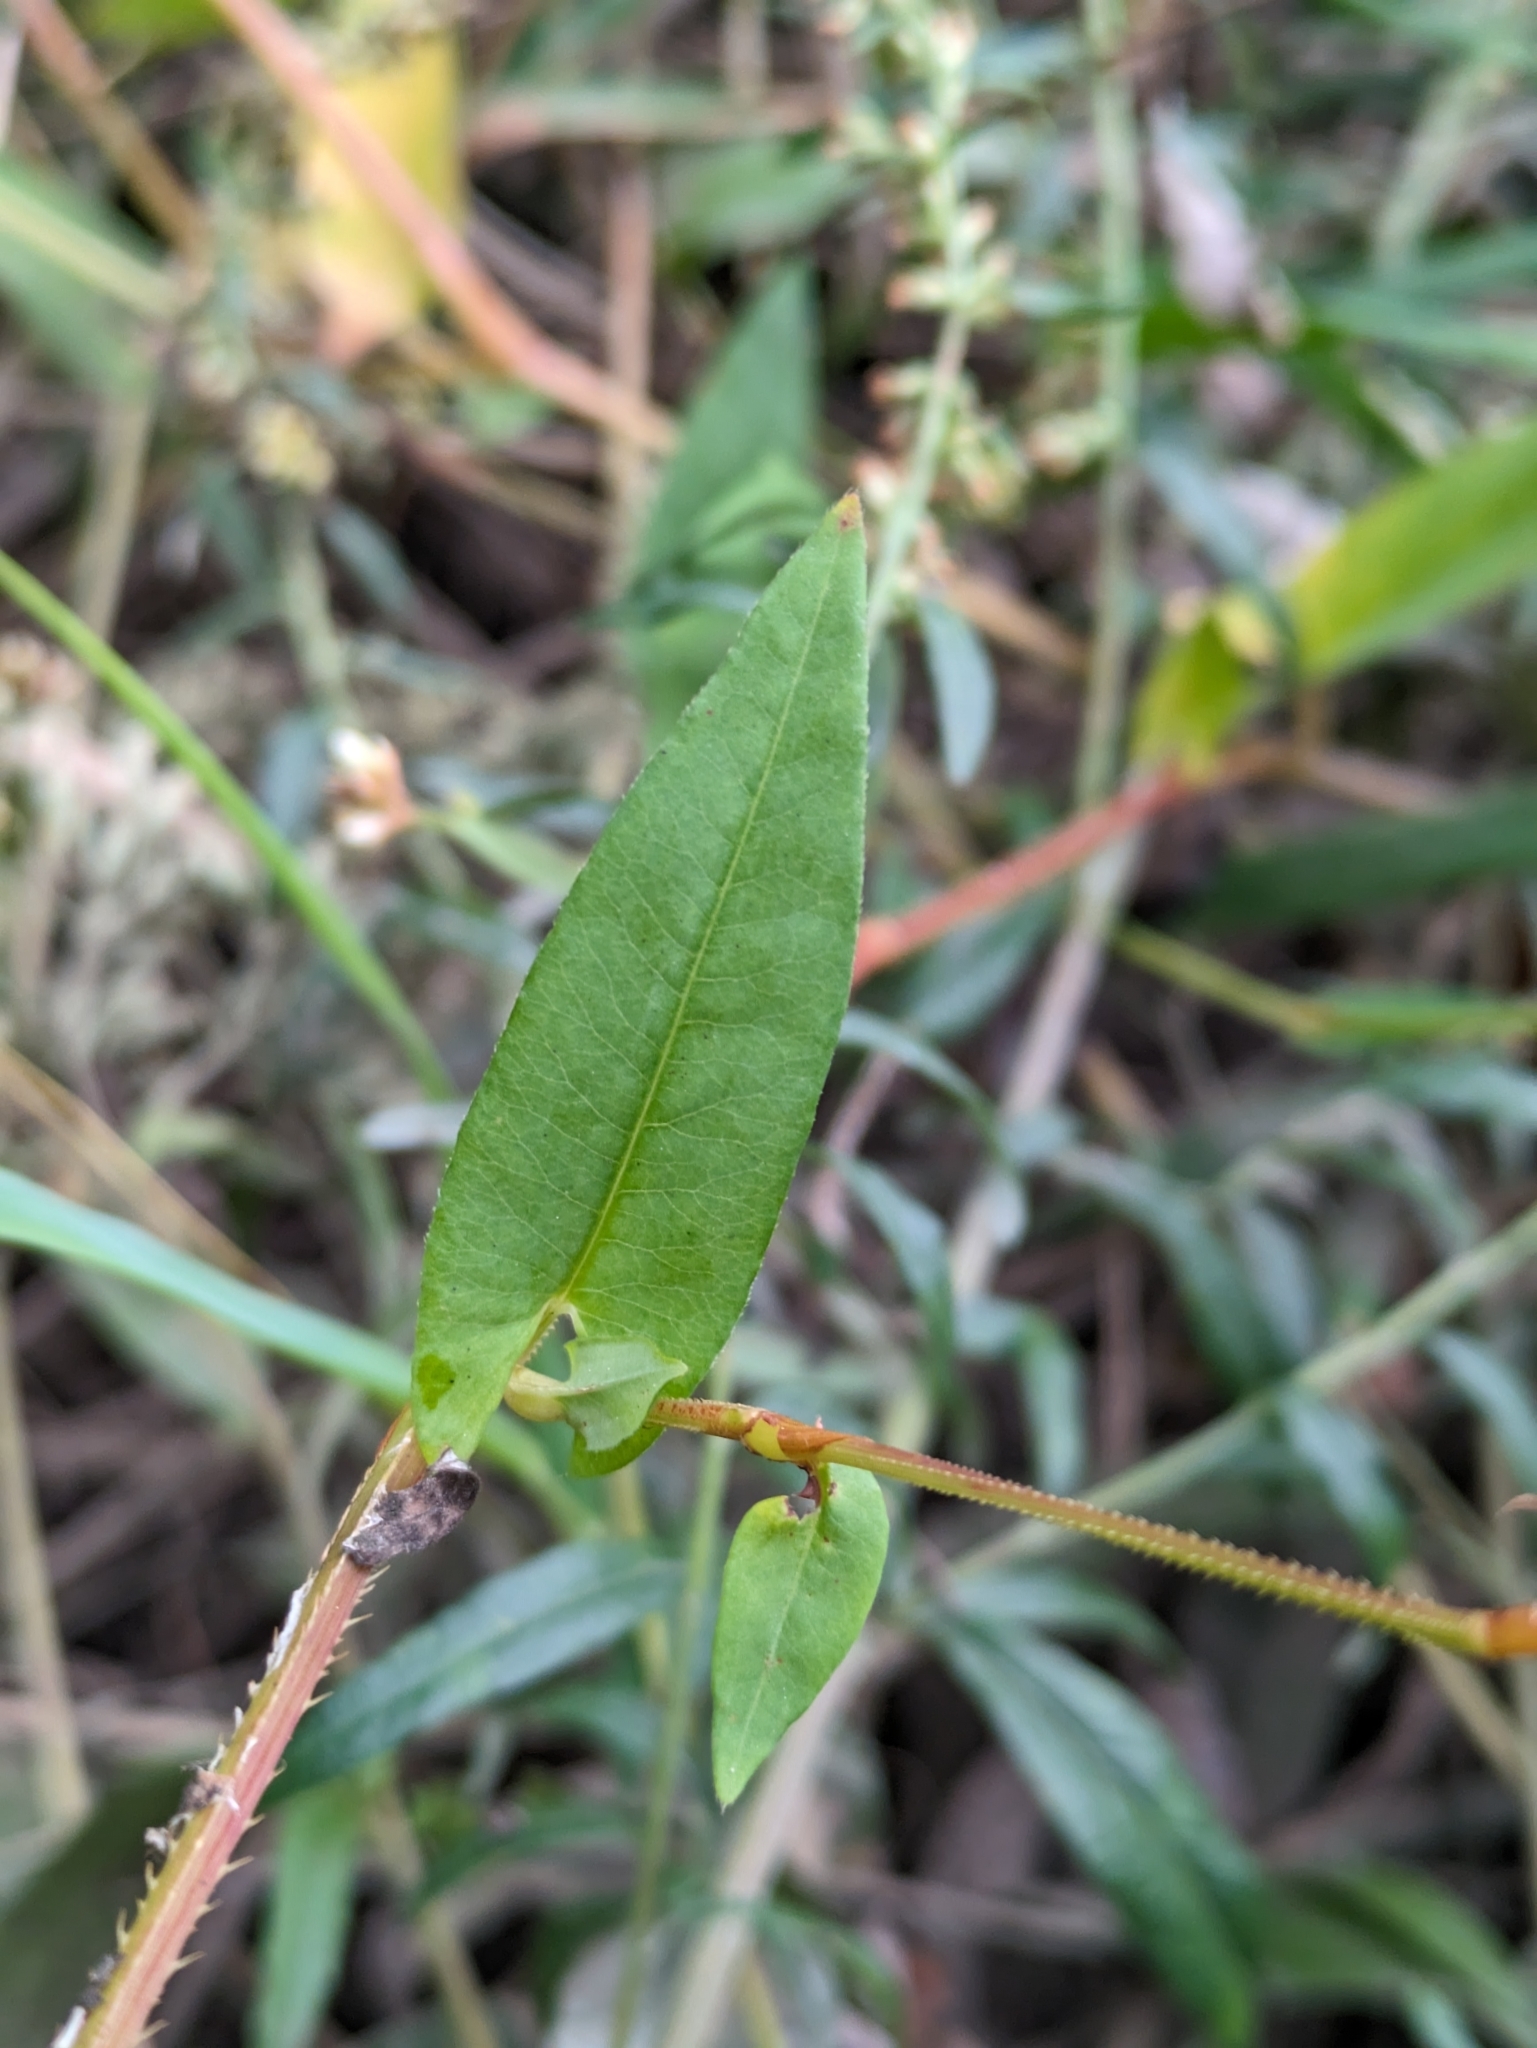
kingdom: Plantae
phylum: Tracheophyta
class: Magnoliopsida
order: Caryophyllales
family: Polygonaceae
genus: Persicaria
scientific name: Persicaria sagittata
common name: American tearthumb
